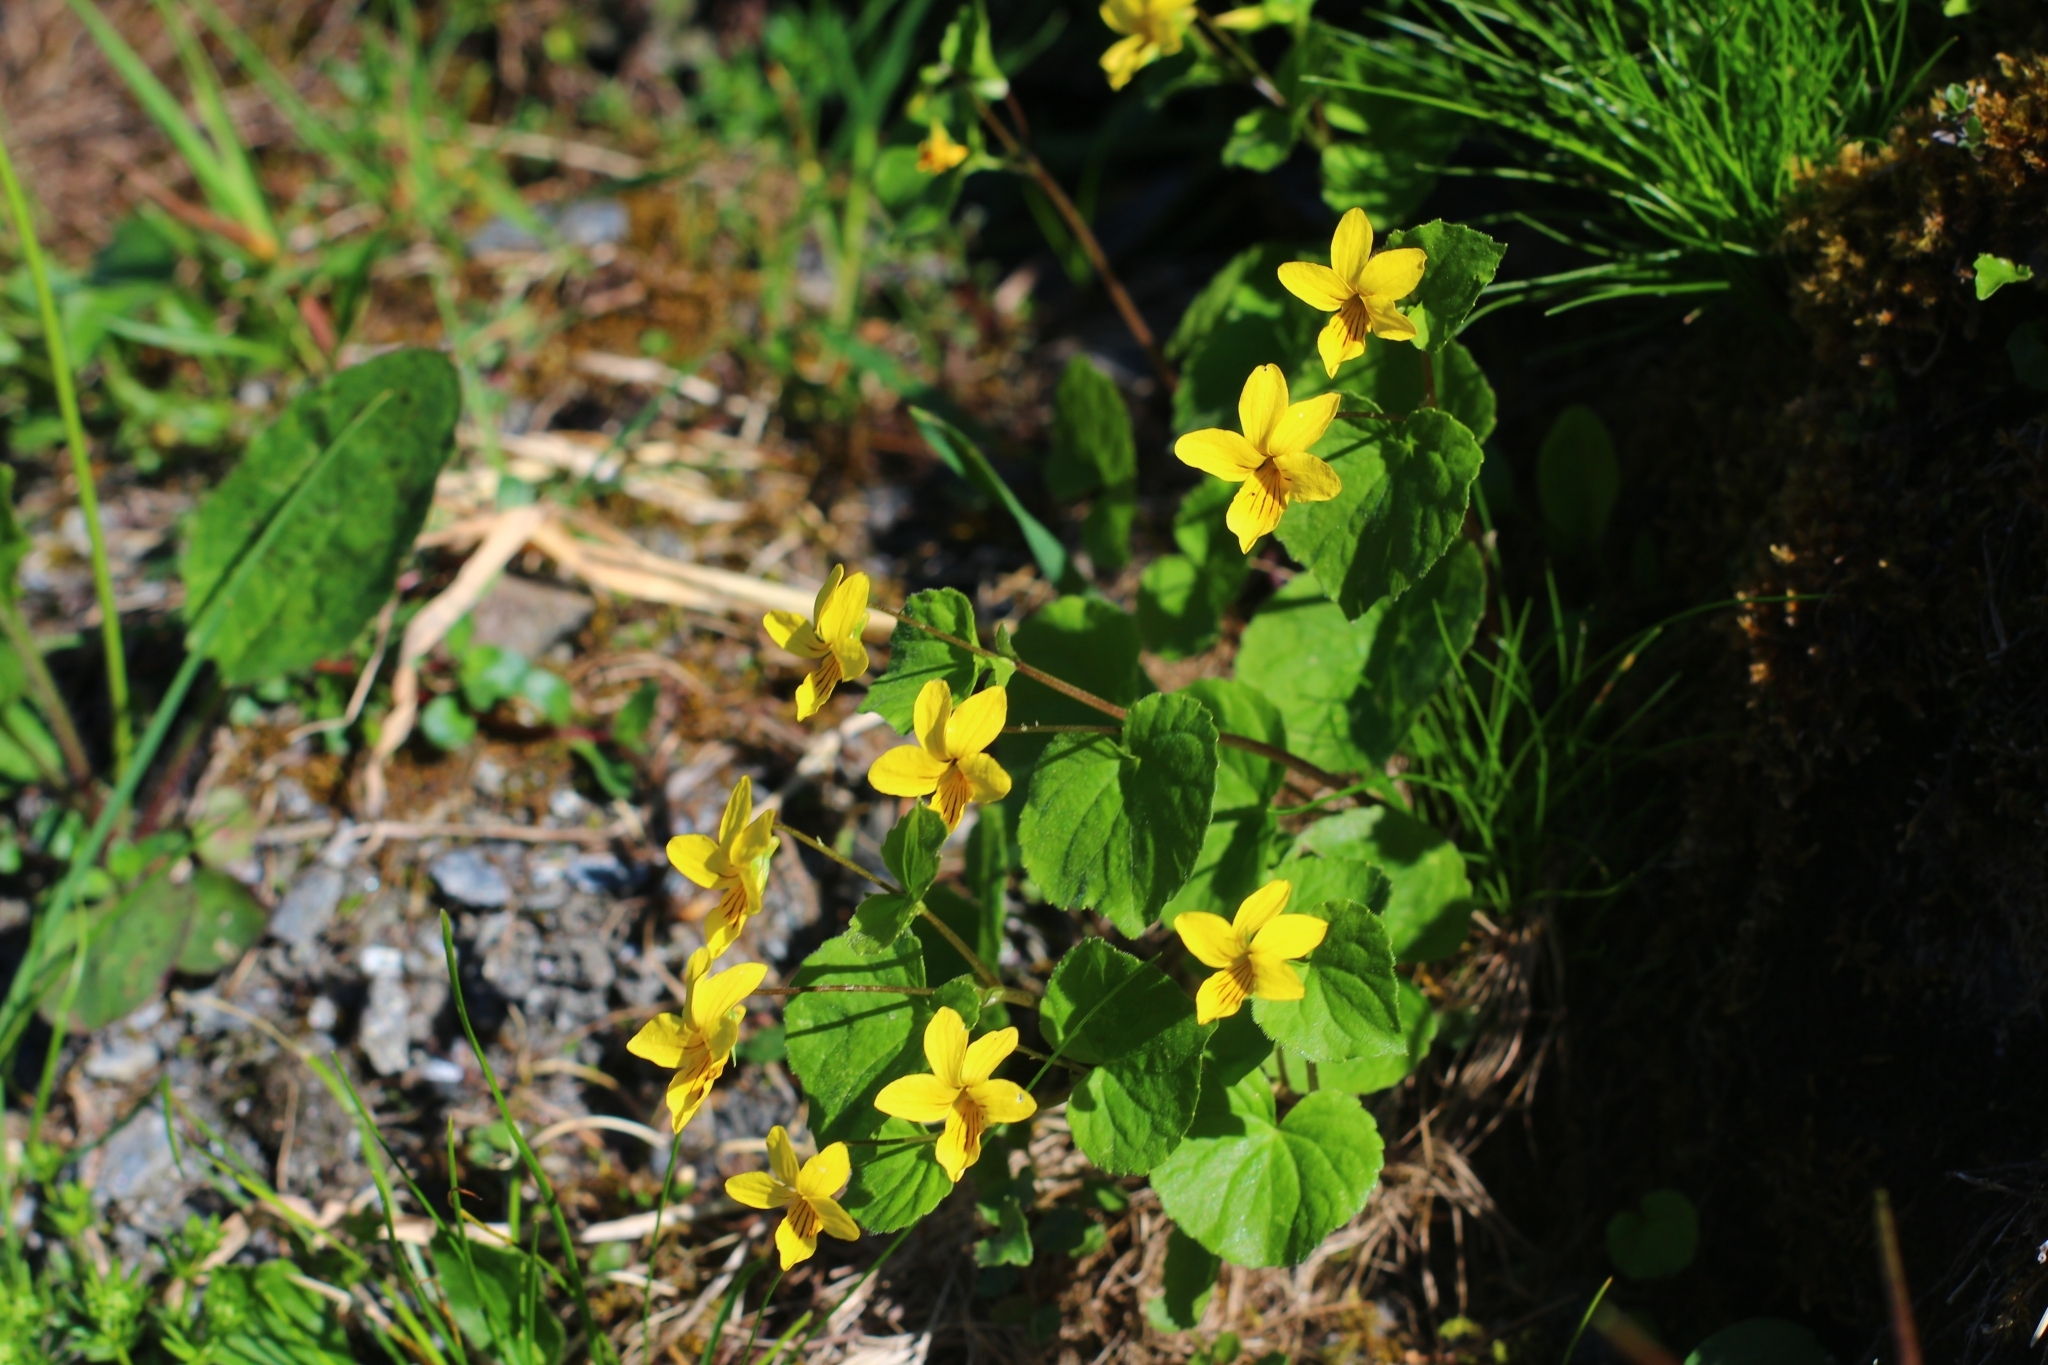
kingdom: Plantae
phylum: Tracheophyta
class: Magnoliopsida
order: Malpighiales
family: Violaceae
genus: Viola
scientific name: Viola biflora
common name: Alpine yellow violet
